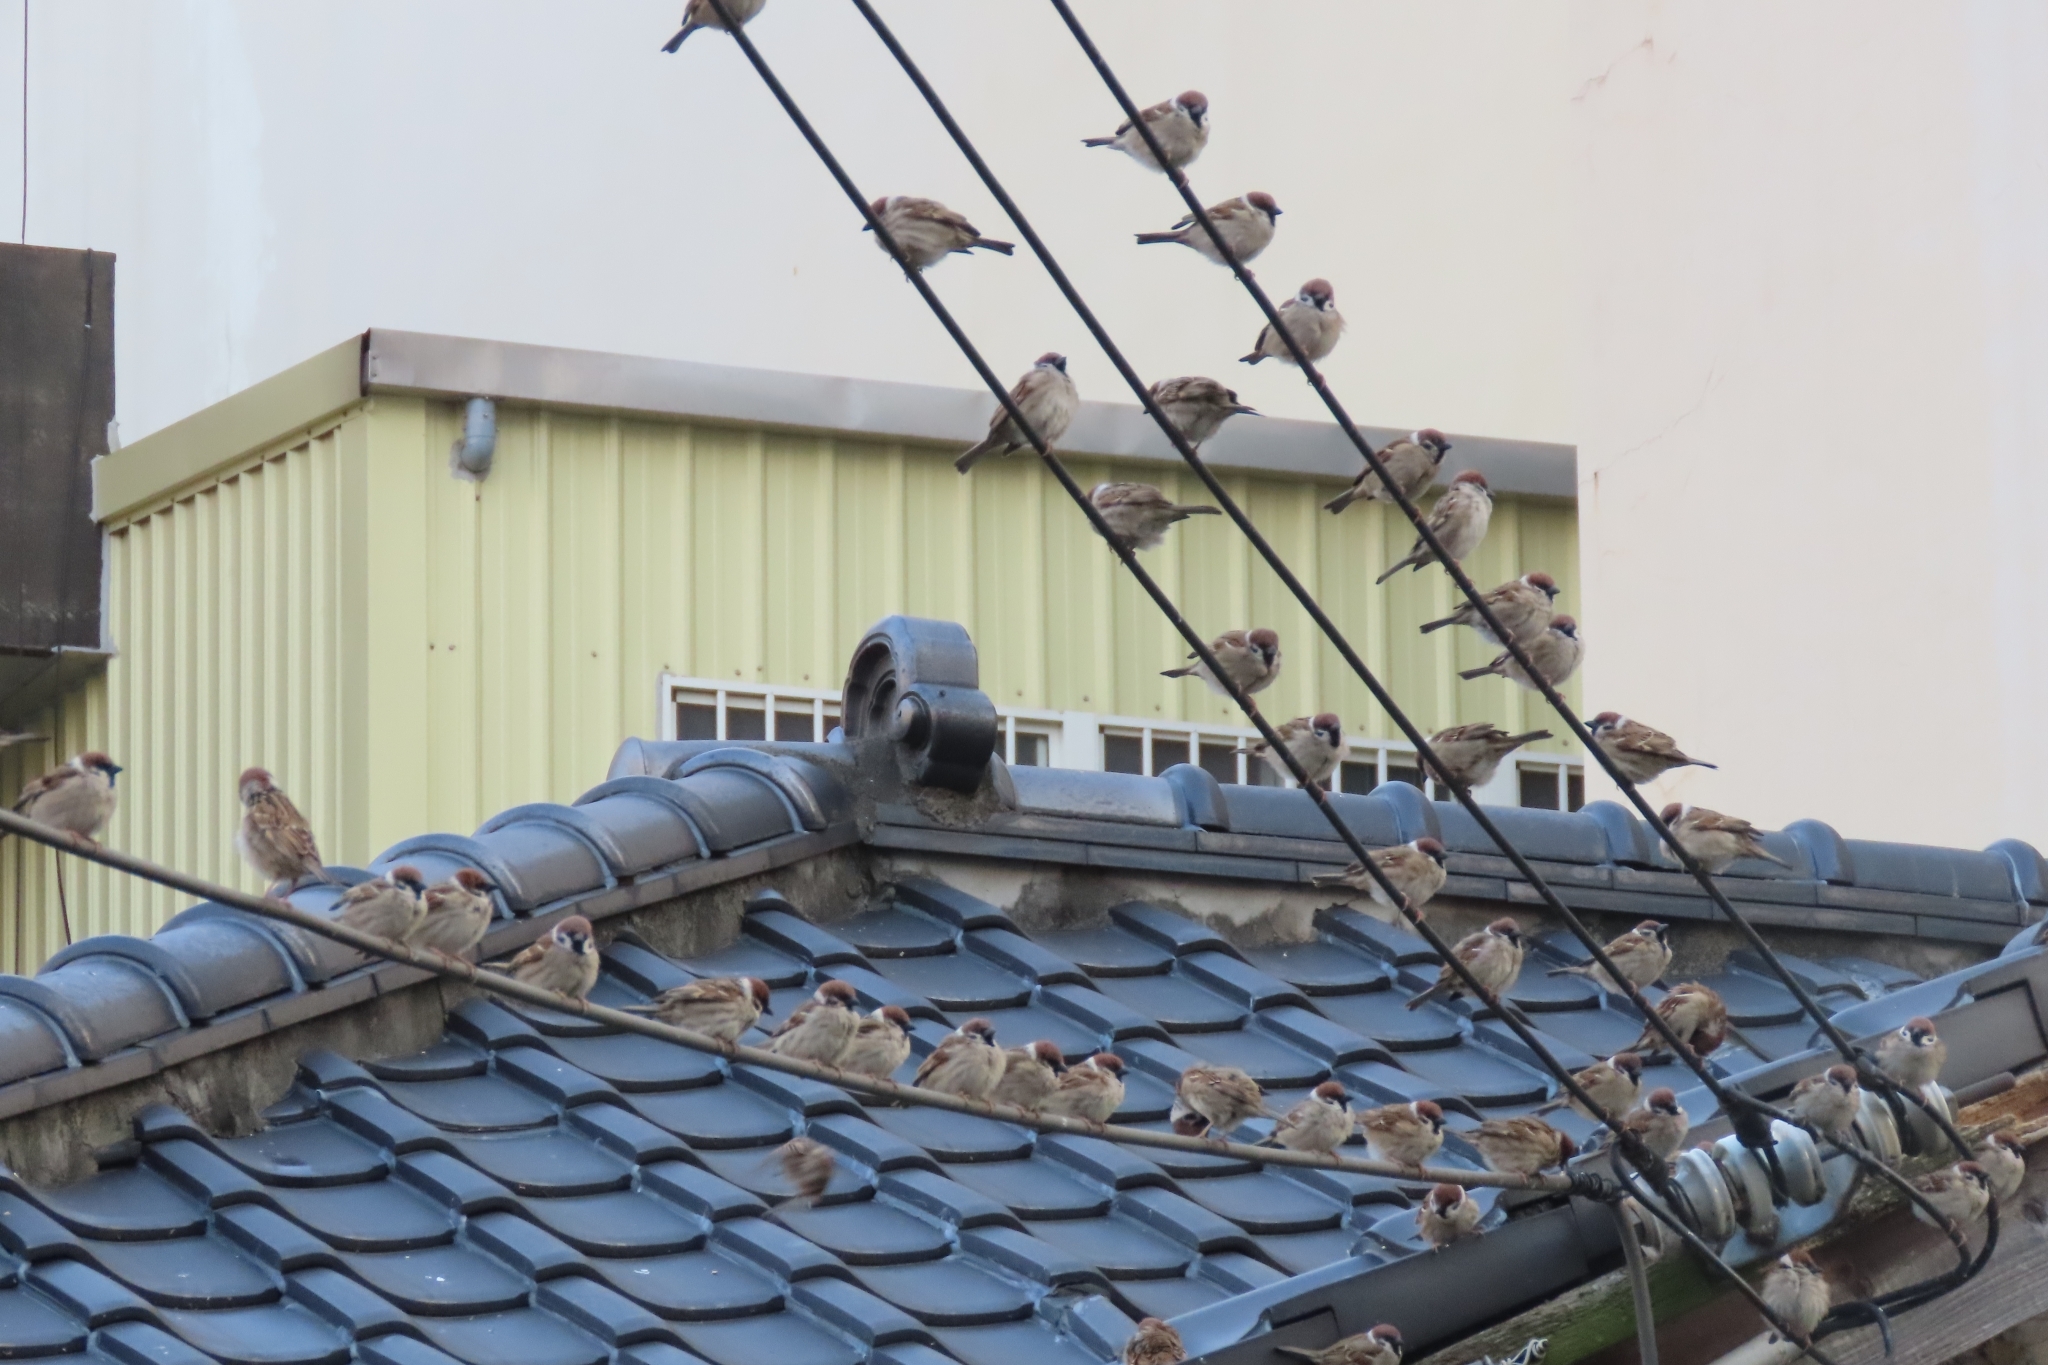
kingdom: Animalia
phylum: Chordata
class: Aves
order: Passeriformes
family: Passeridae
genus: Passer
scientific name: Passer montanus
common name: Eurasian tree sparrow
